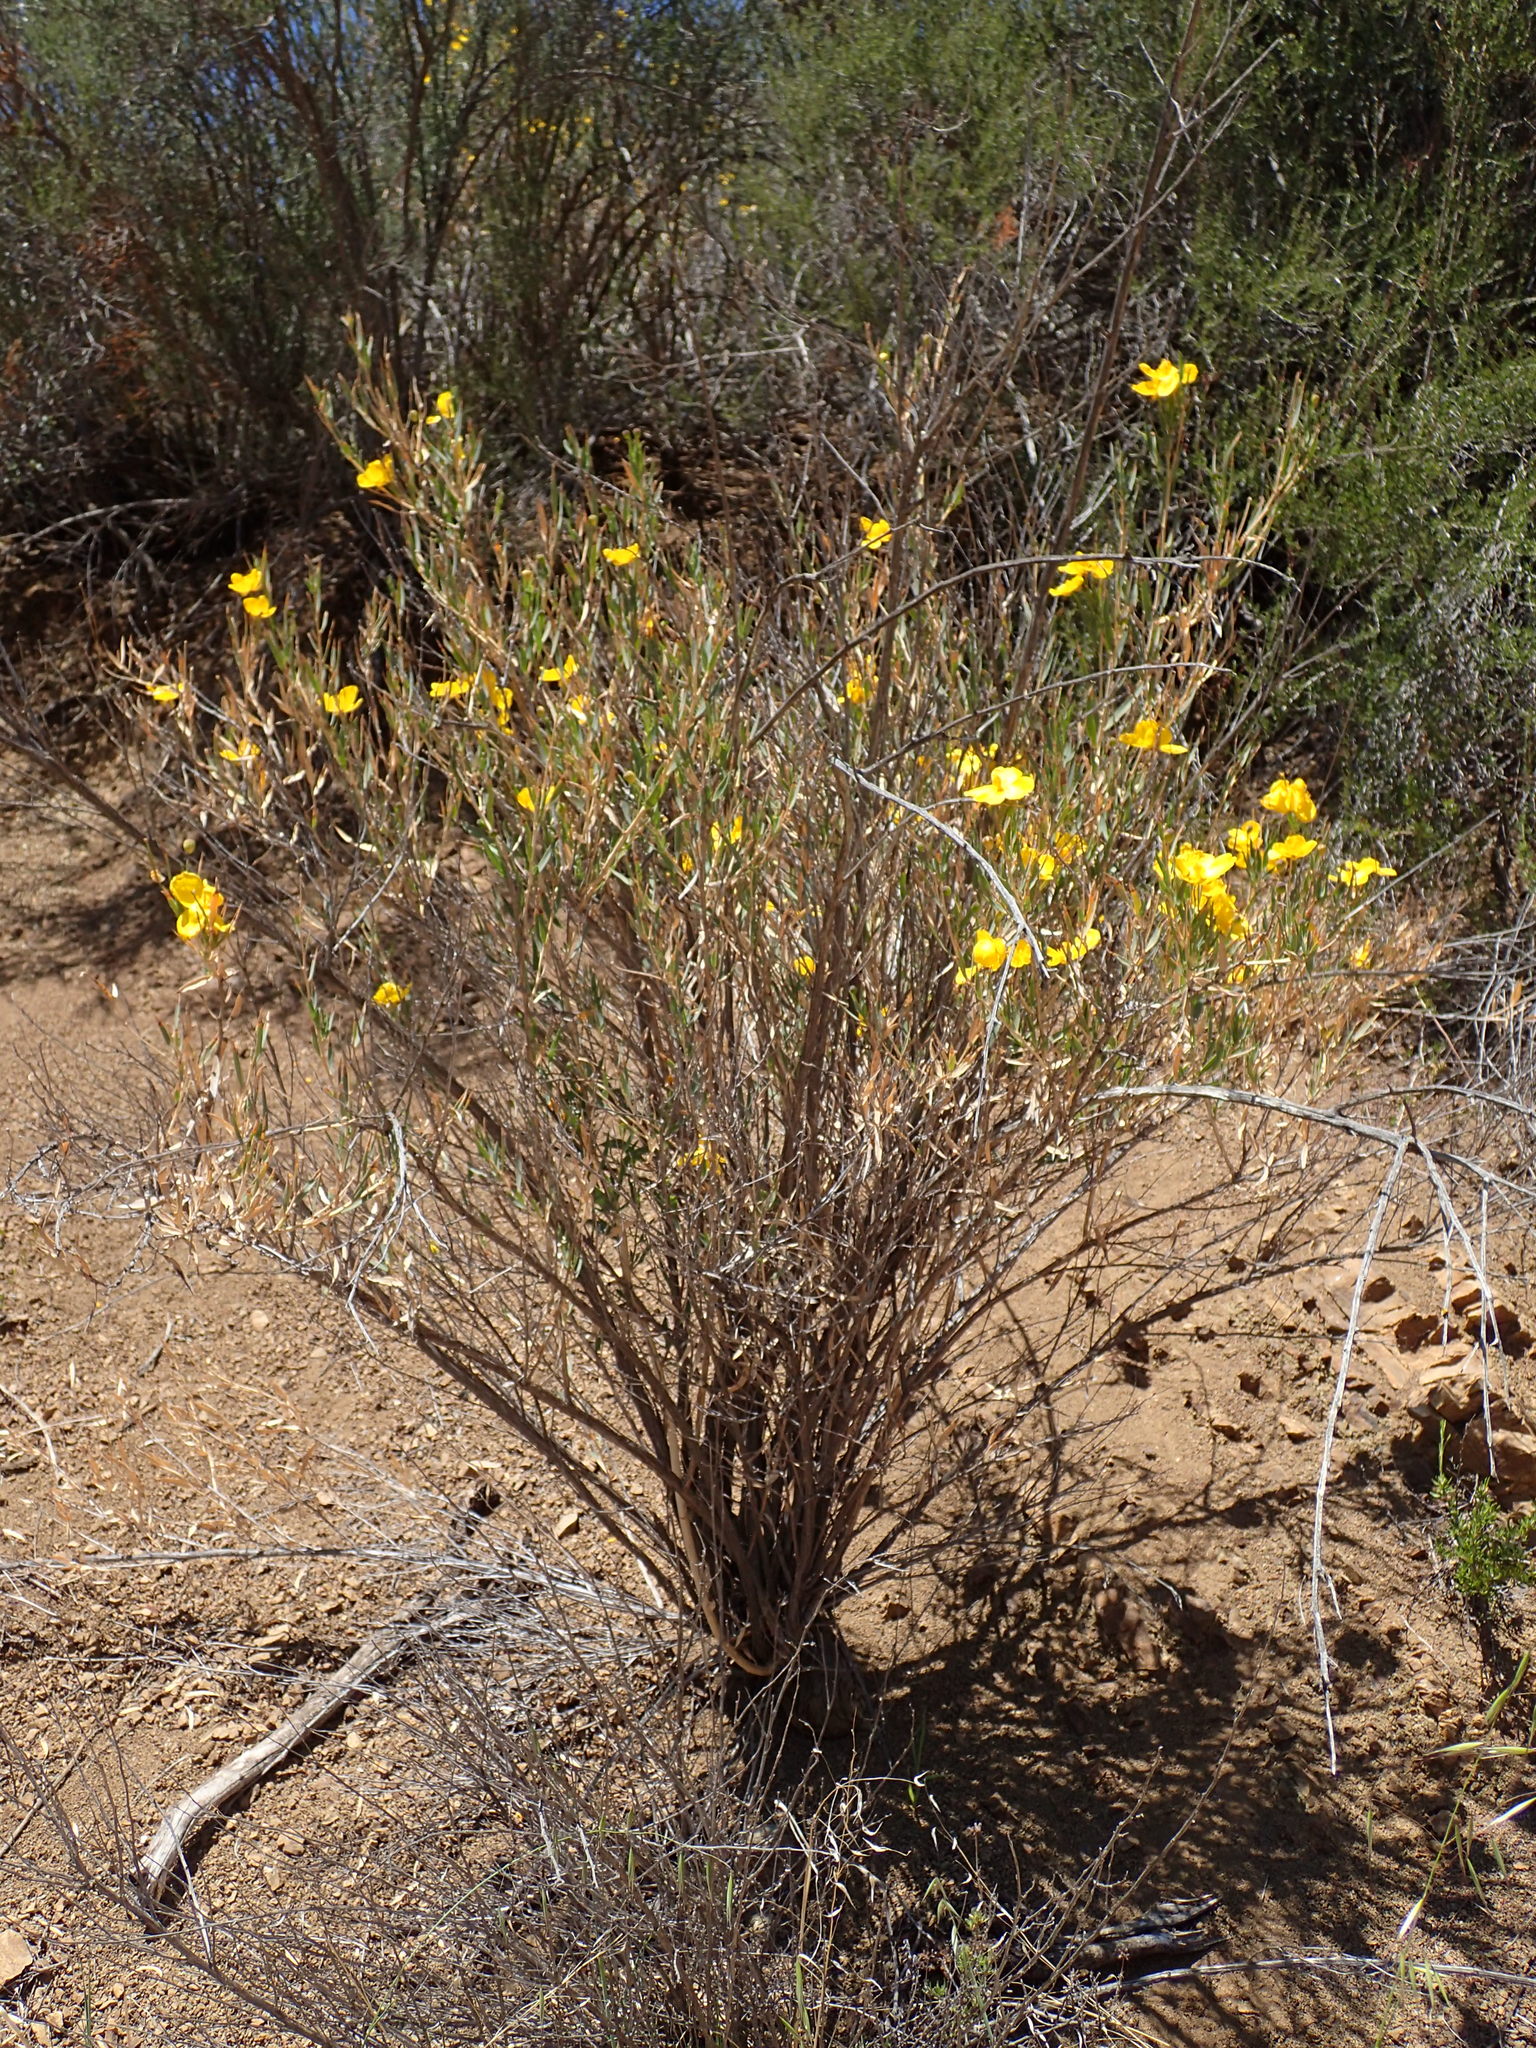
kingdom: Plantae
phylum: Tracheophyta
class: Magnoliopsida
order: Ranunculales
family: Papaveraceae
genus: Dendromecon
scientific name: Dendromecon rigida
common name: Tree poppy
